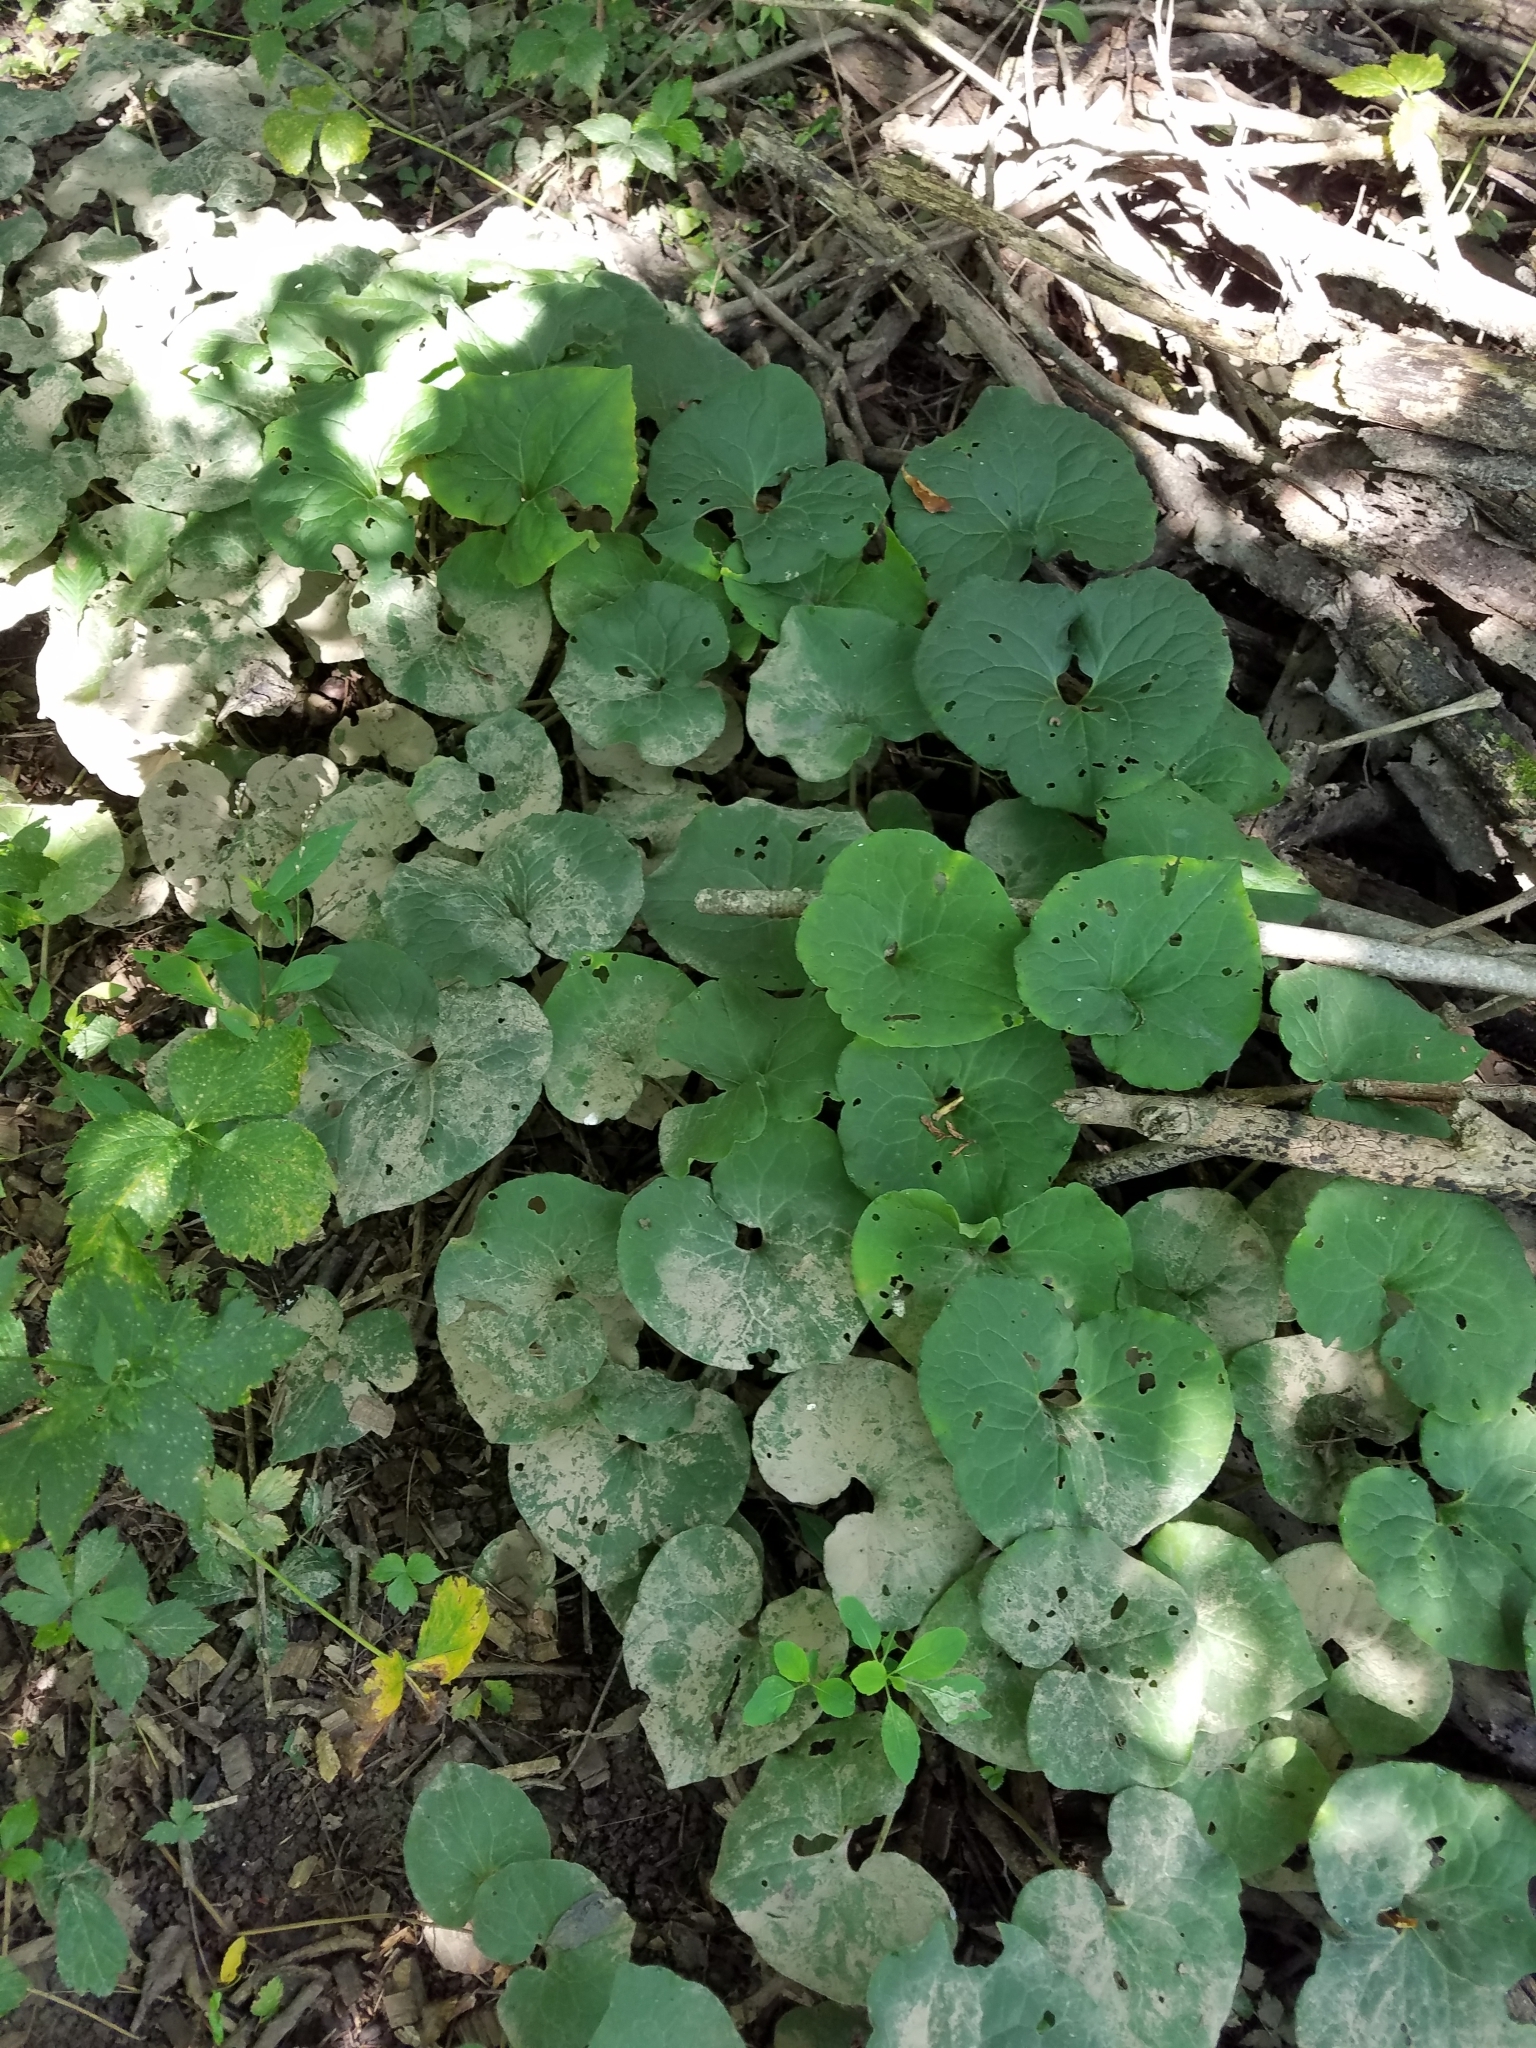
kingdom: Plantae
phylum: Tracheophyta
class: Magnoliopsida
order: Piperales
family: Aristolochiaceae
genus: Asarum
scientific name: Asarum canadense
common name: Wild ginger
